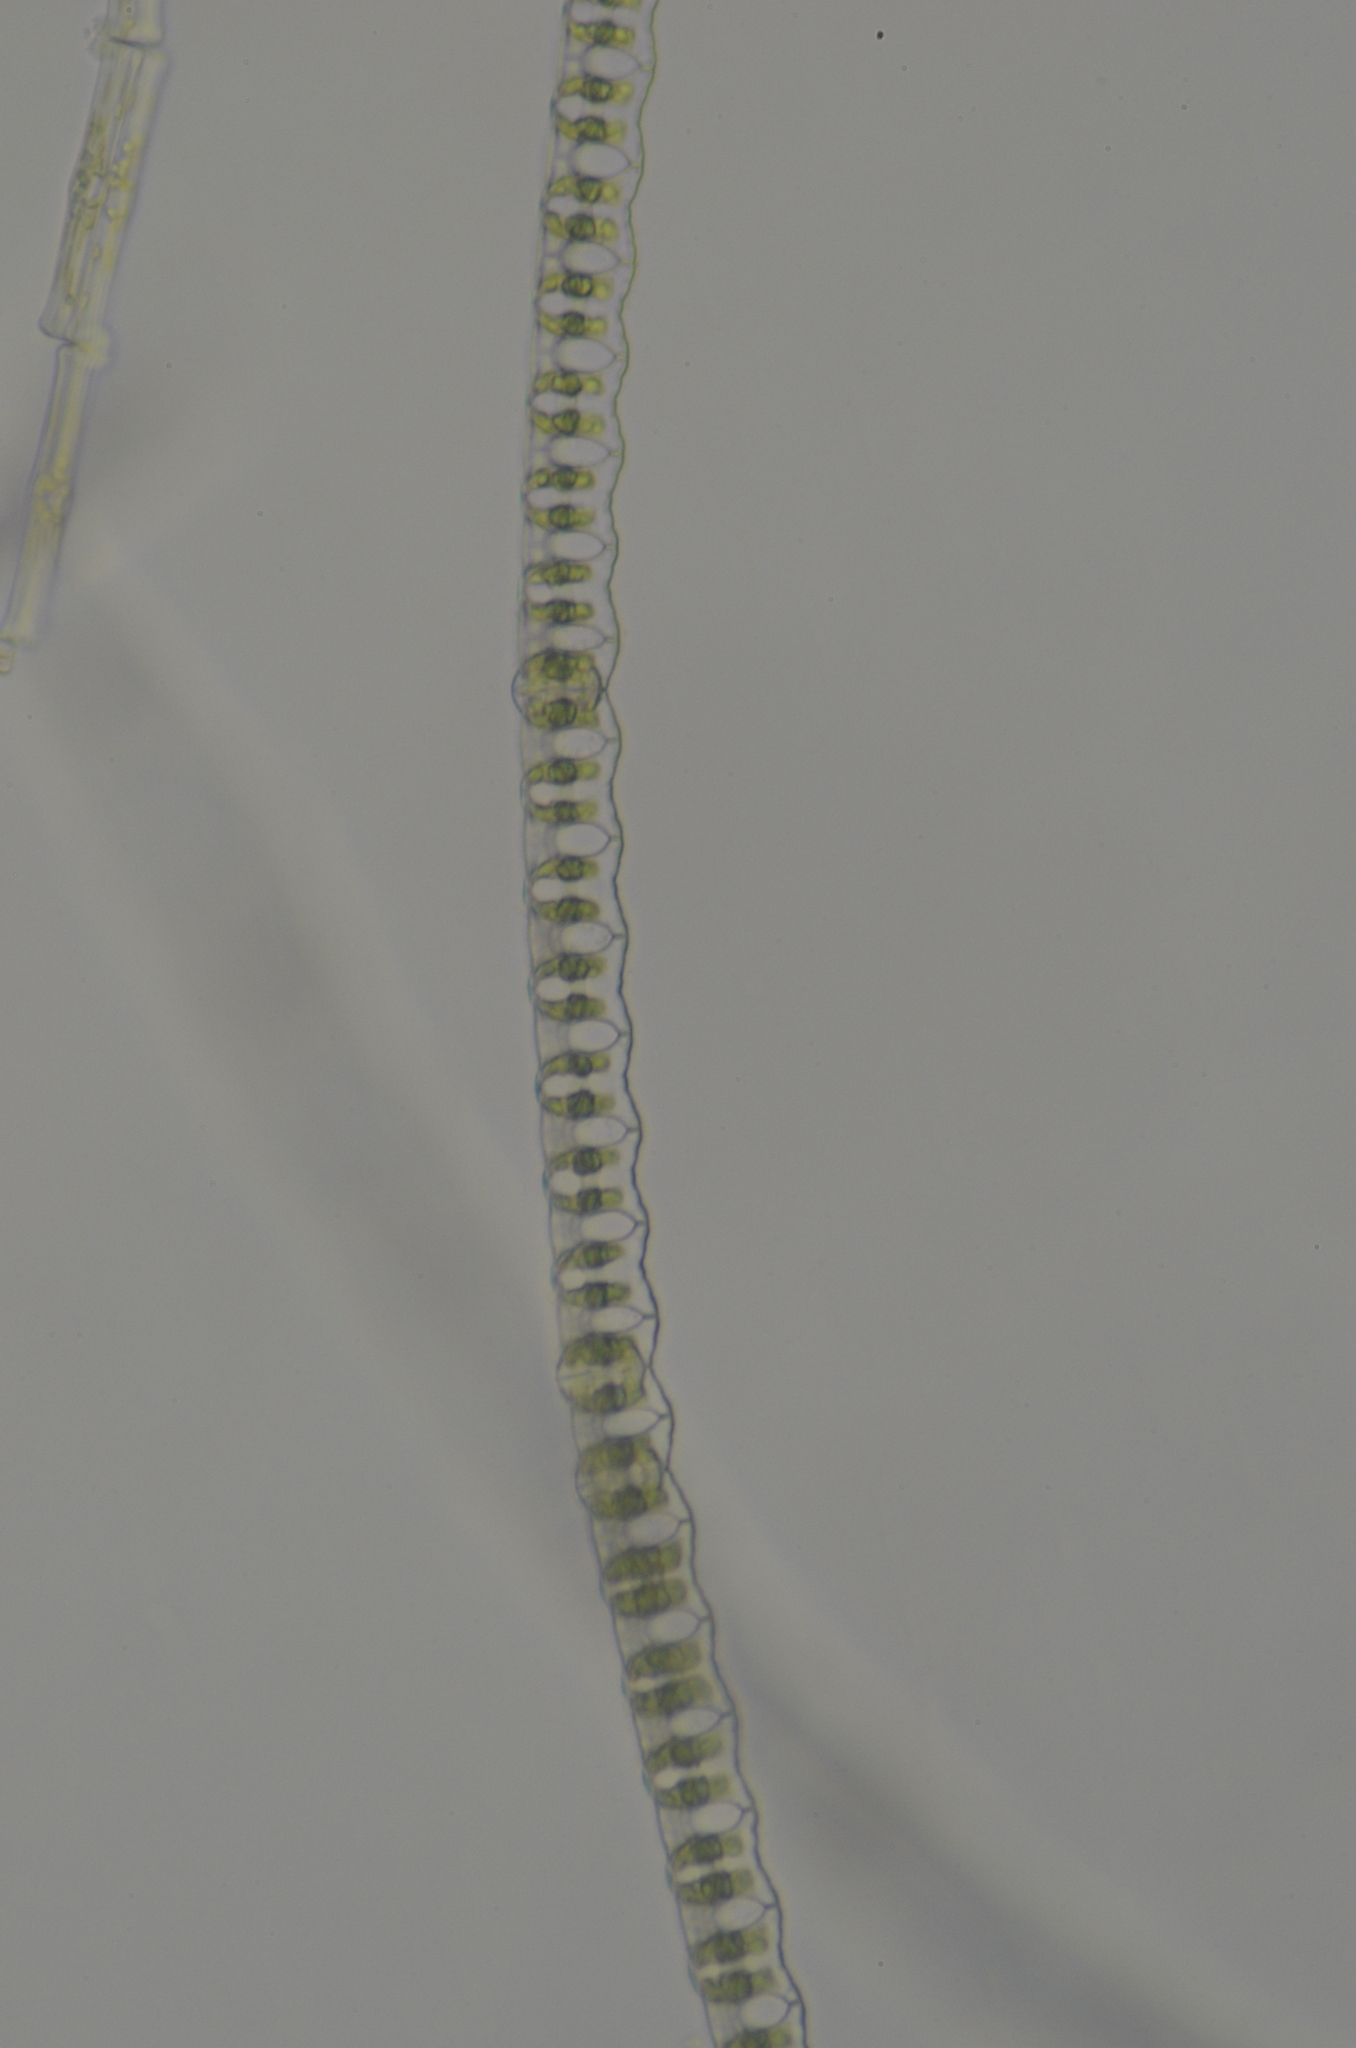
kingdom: Plantae
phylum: Charophyta
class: Conjugatophyceae
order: Desmidiales
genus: Desmidium
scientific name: Desmidium baileyi
